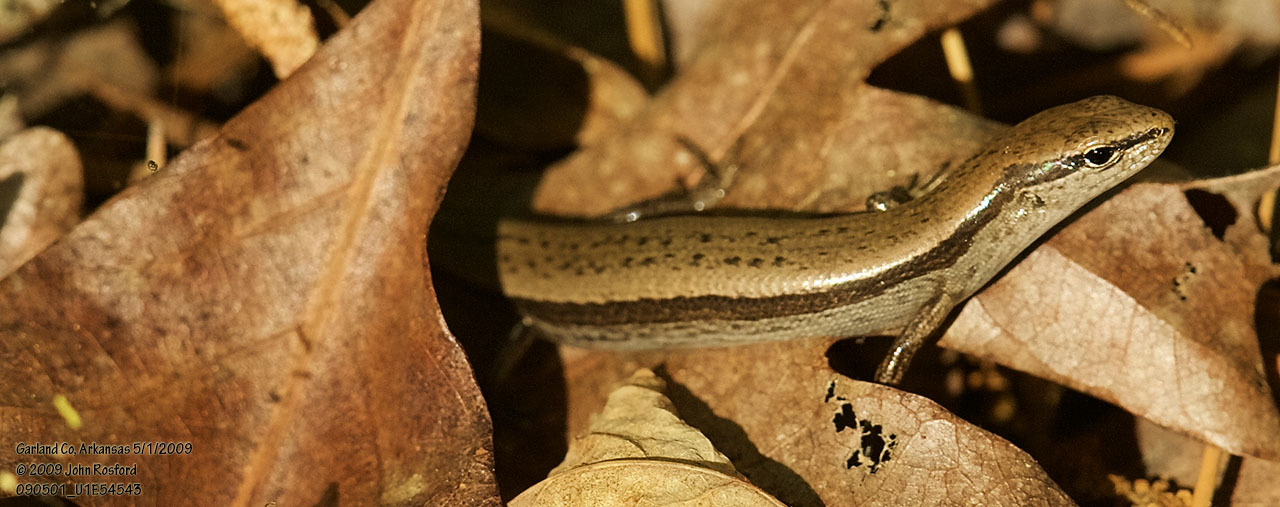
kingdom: Animalia
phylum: Chordata
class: Squamata
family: Scincidae
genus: Scincella
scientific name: Scincella lateralis
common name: Ground skink
